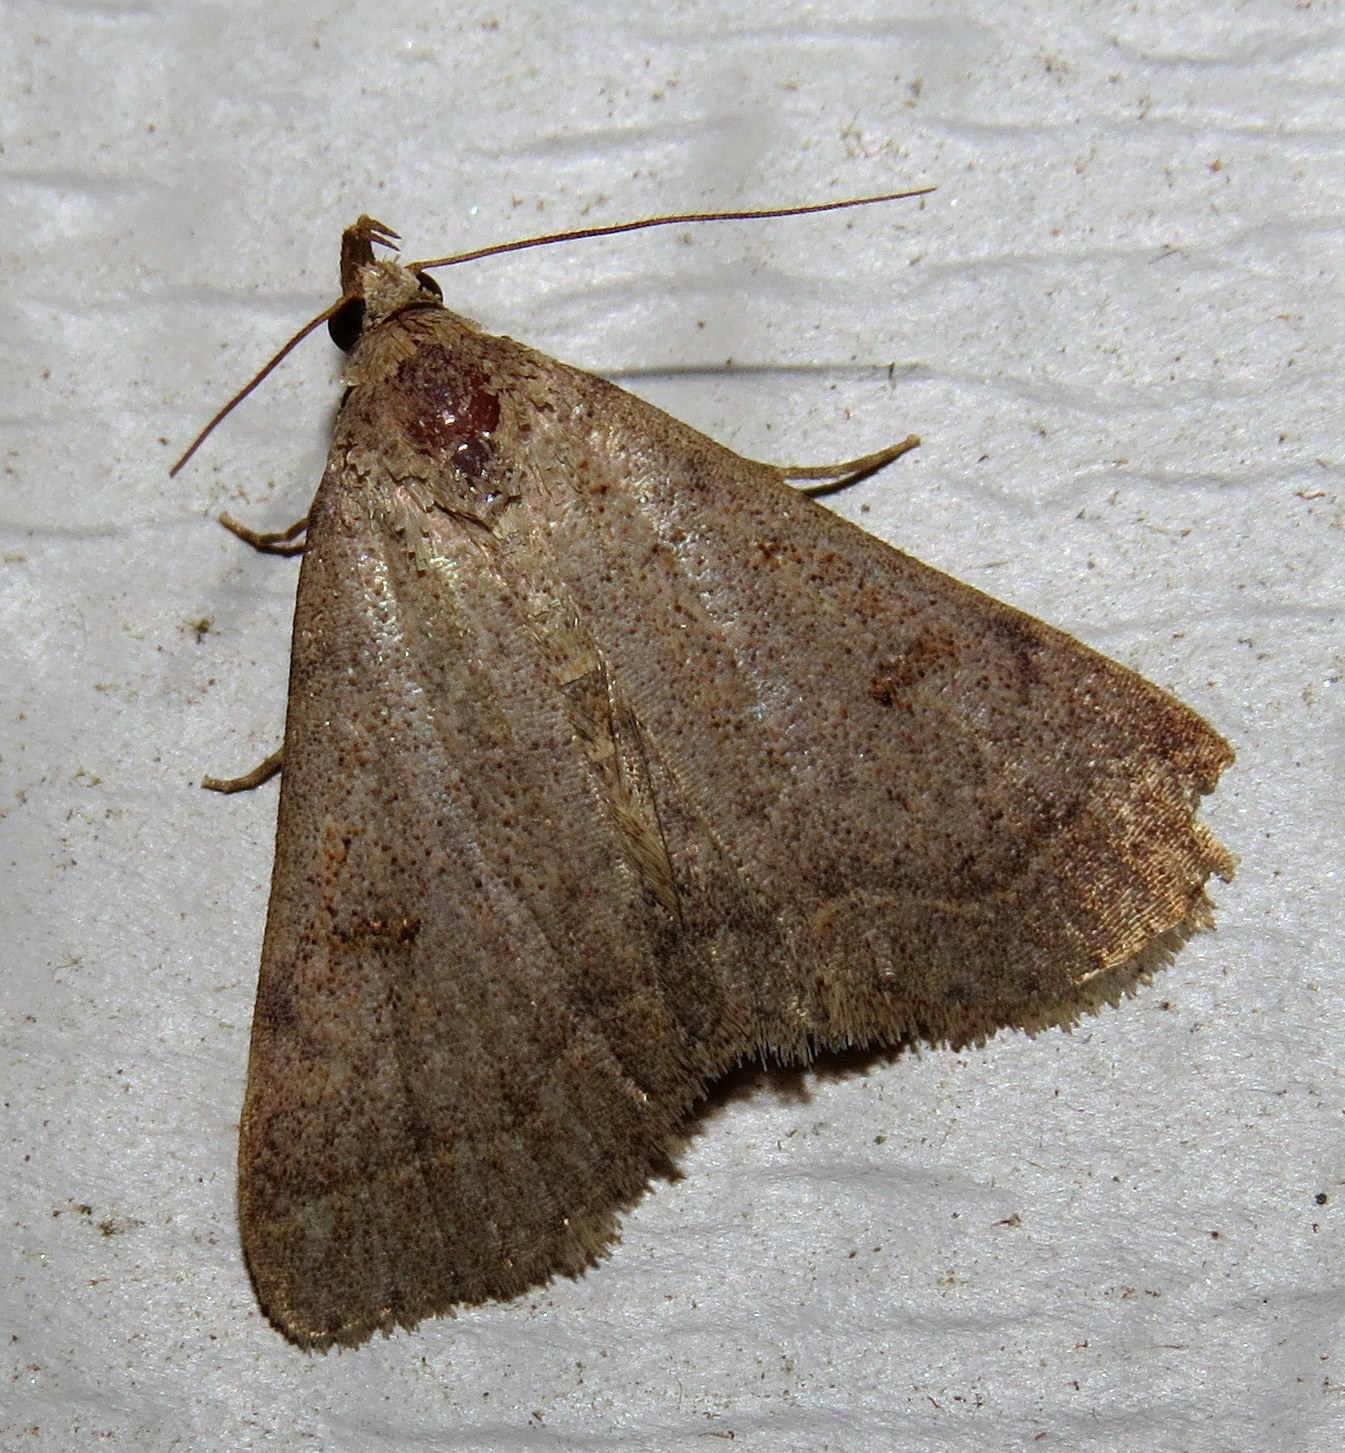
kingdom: Animalia
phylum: Arthropoda
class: Insecta
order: Lepidoptera
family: Erebidae
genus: Bleptina
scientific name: Bleptina caradrinalis
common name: Bent-winged owlet
